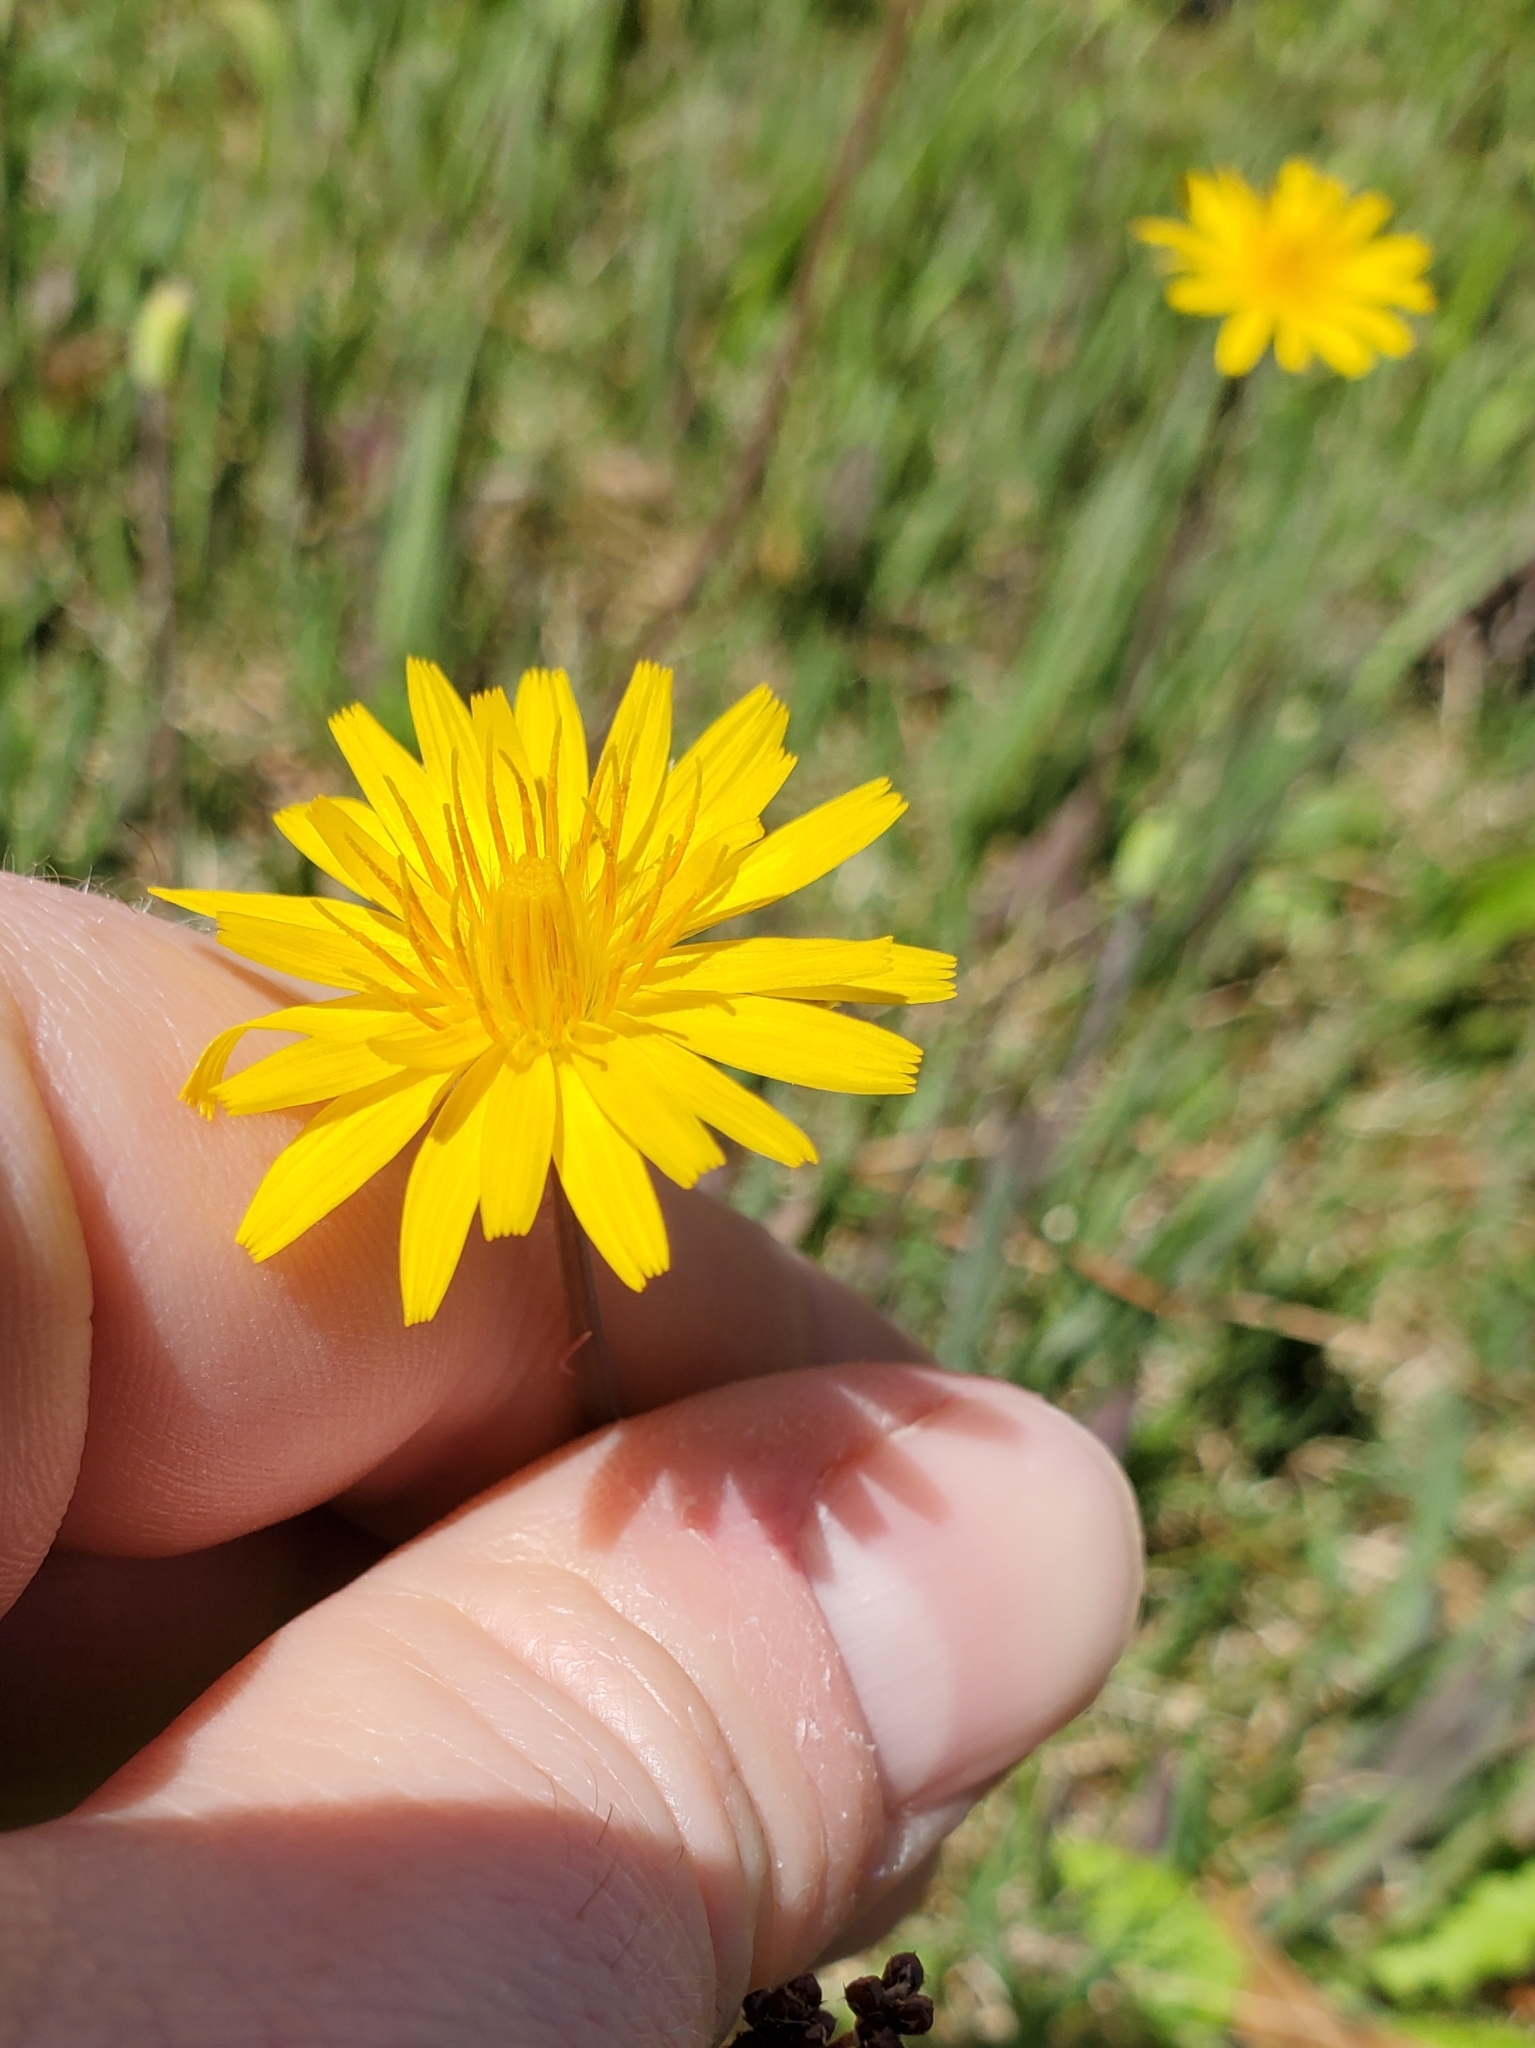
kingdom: Plantae
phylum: Tracheophyta
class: Magnoliopsida
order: Asterales
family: Asteraceae
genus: Krigia
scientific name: Krigia dandelion
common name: Colonial dwarf-dandelion
